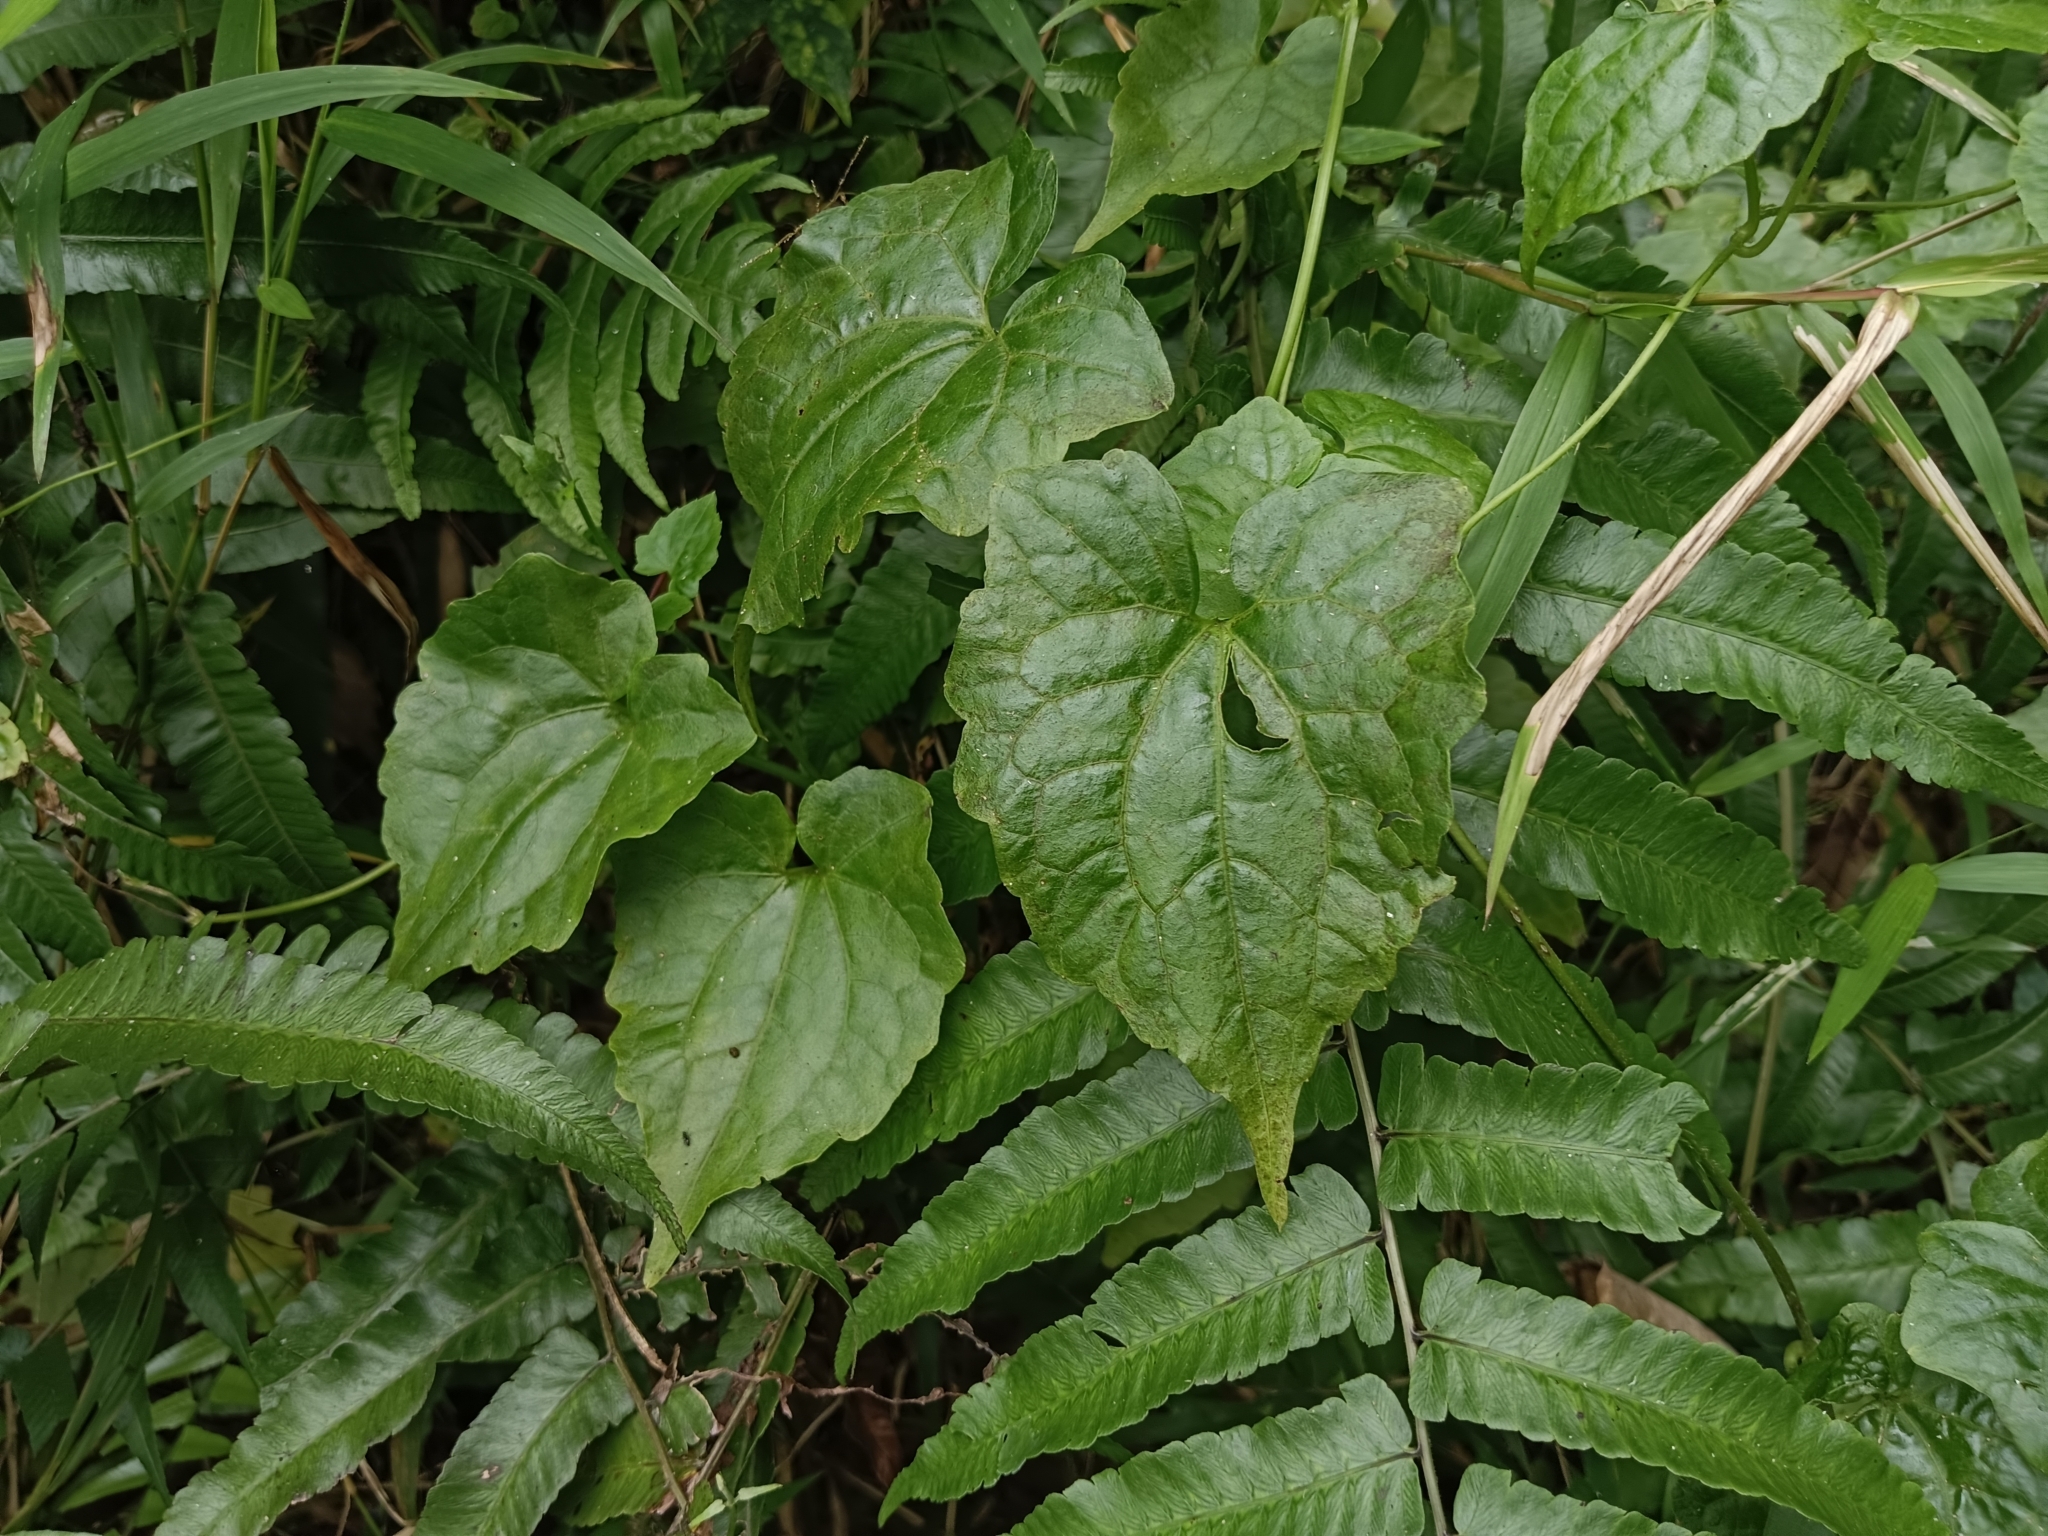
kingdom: Plantae
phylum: Tracheophyta
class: Magnoliopsida
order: Asterales
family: Asteraceae
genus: Mikania
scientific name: Mikania micrantha
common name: Mile-a-minute
